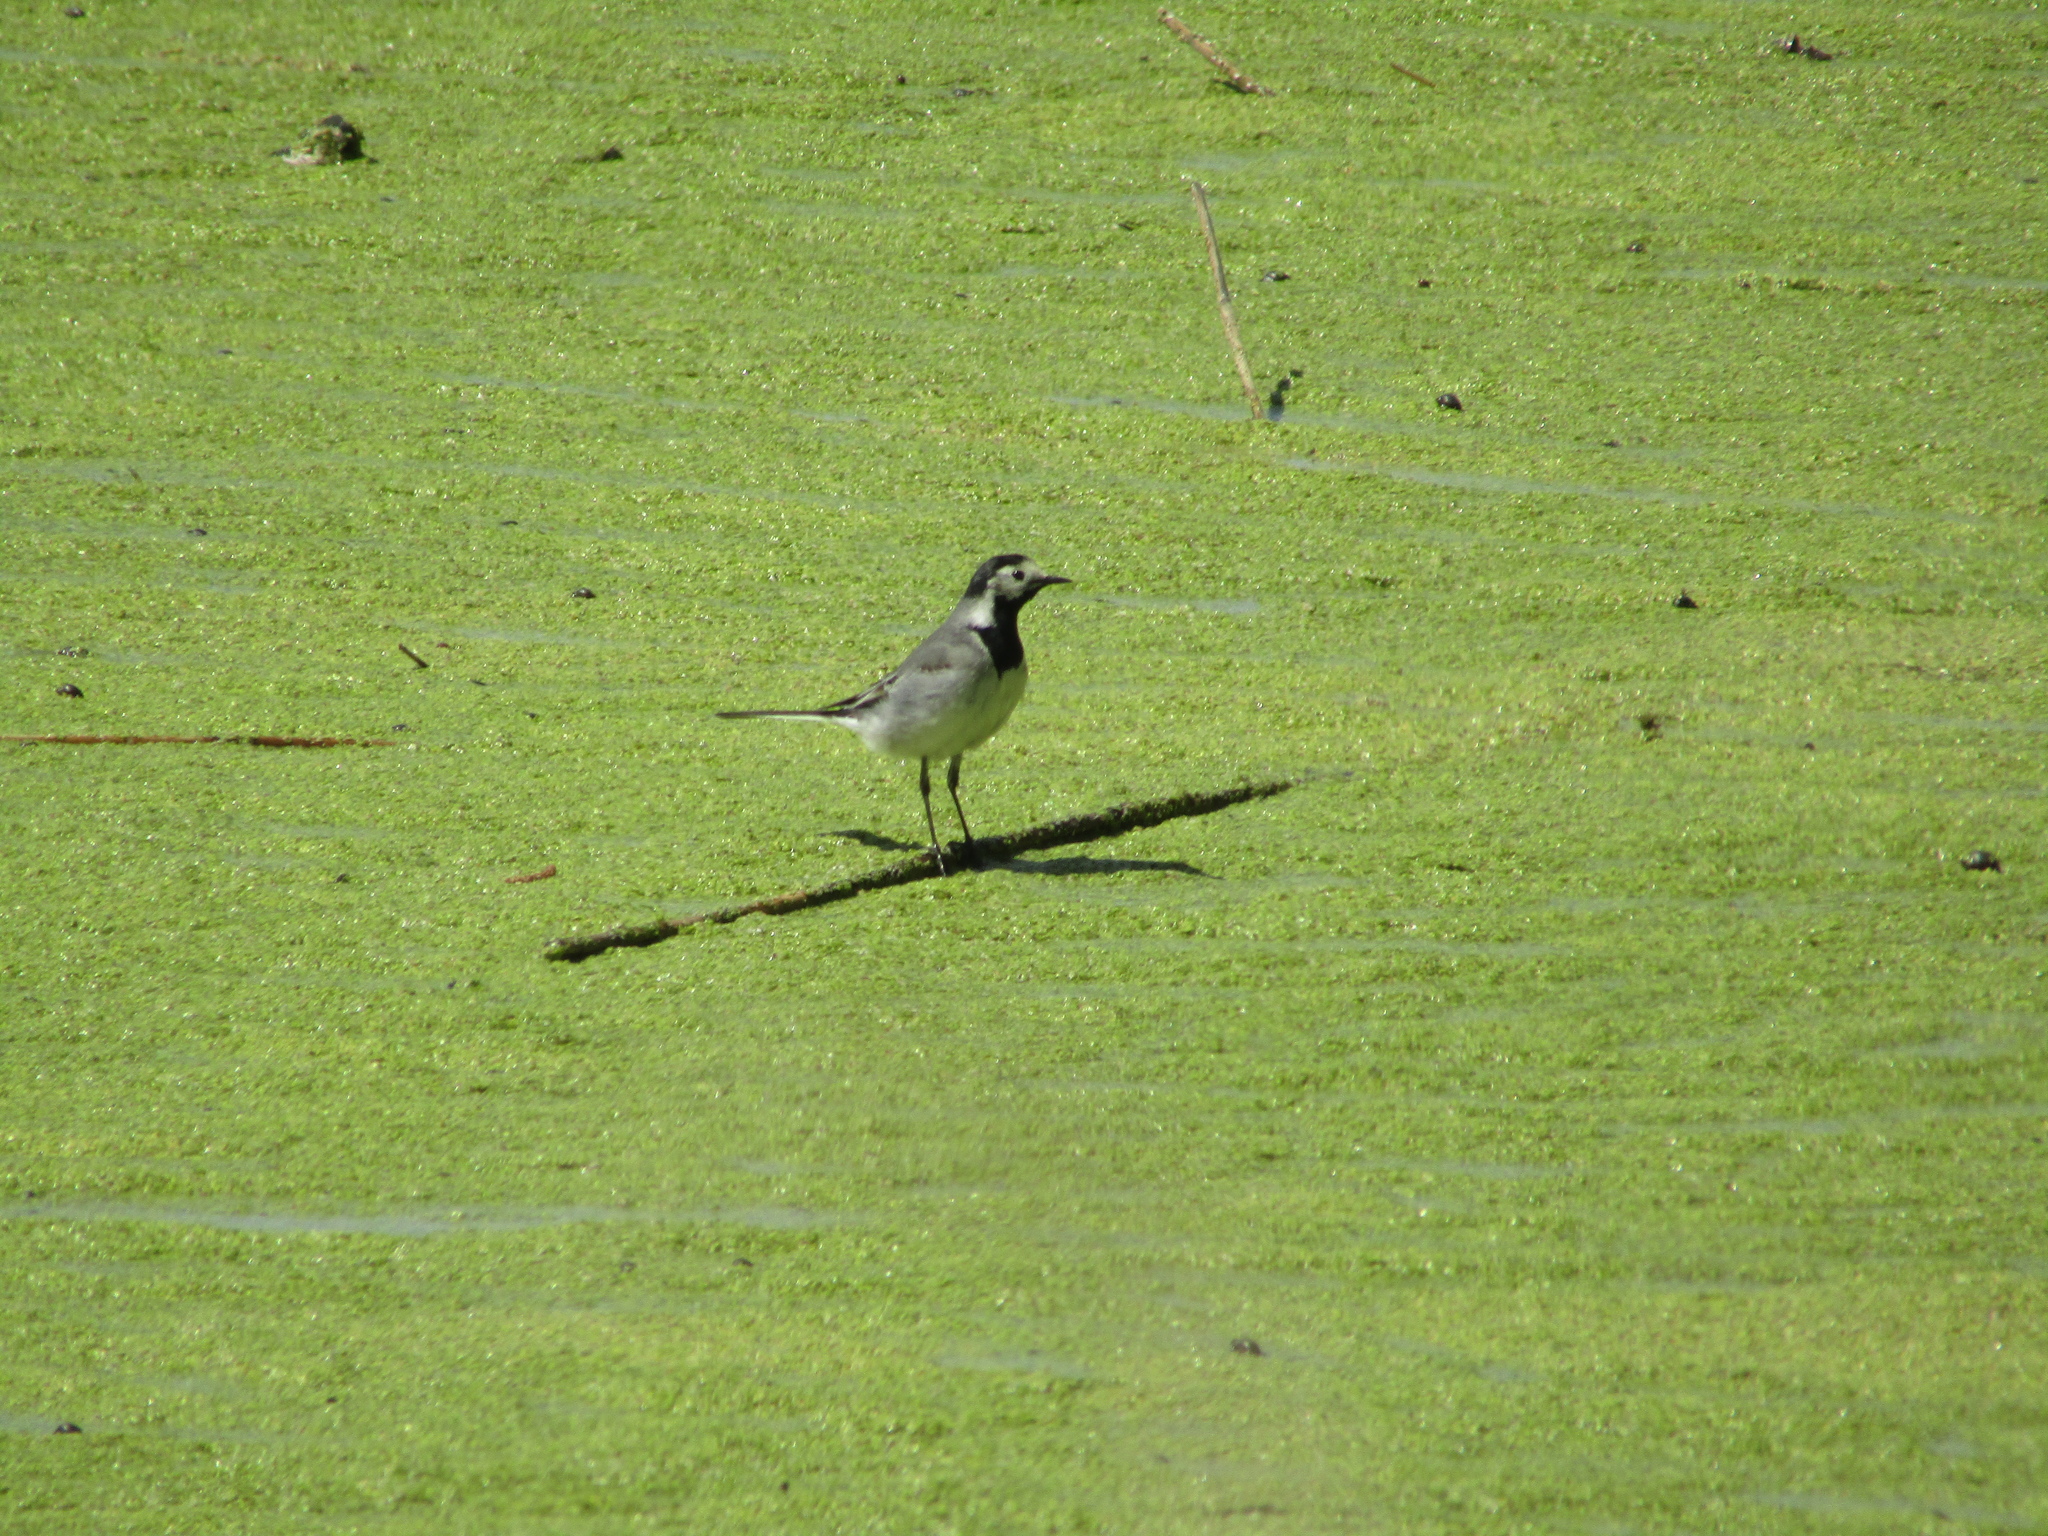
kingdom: Animalia
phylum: Chordata
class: Aves
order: Passeriformes
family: Motacillidae
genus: Motacilla
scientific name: Motacilla alba
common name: White wagtail
